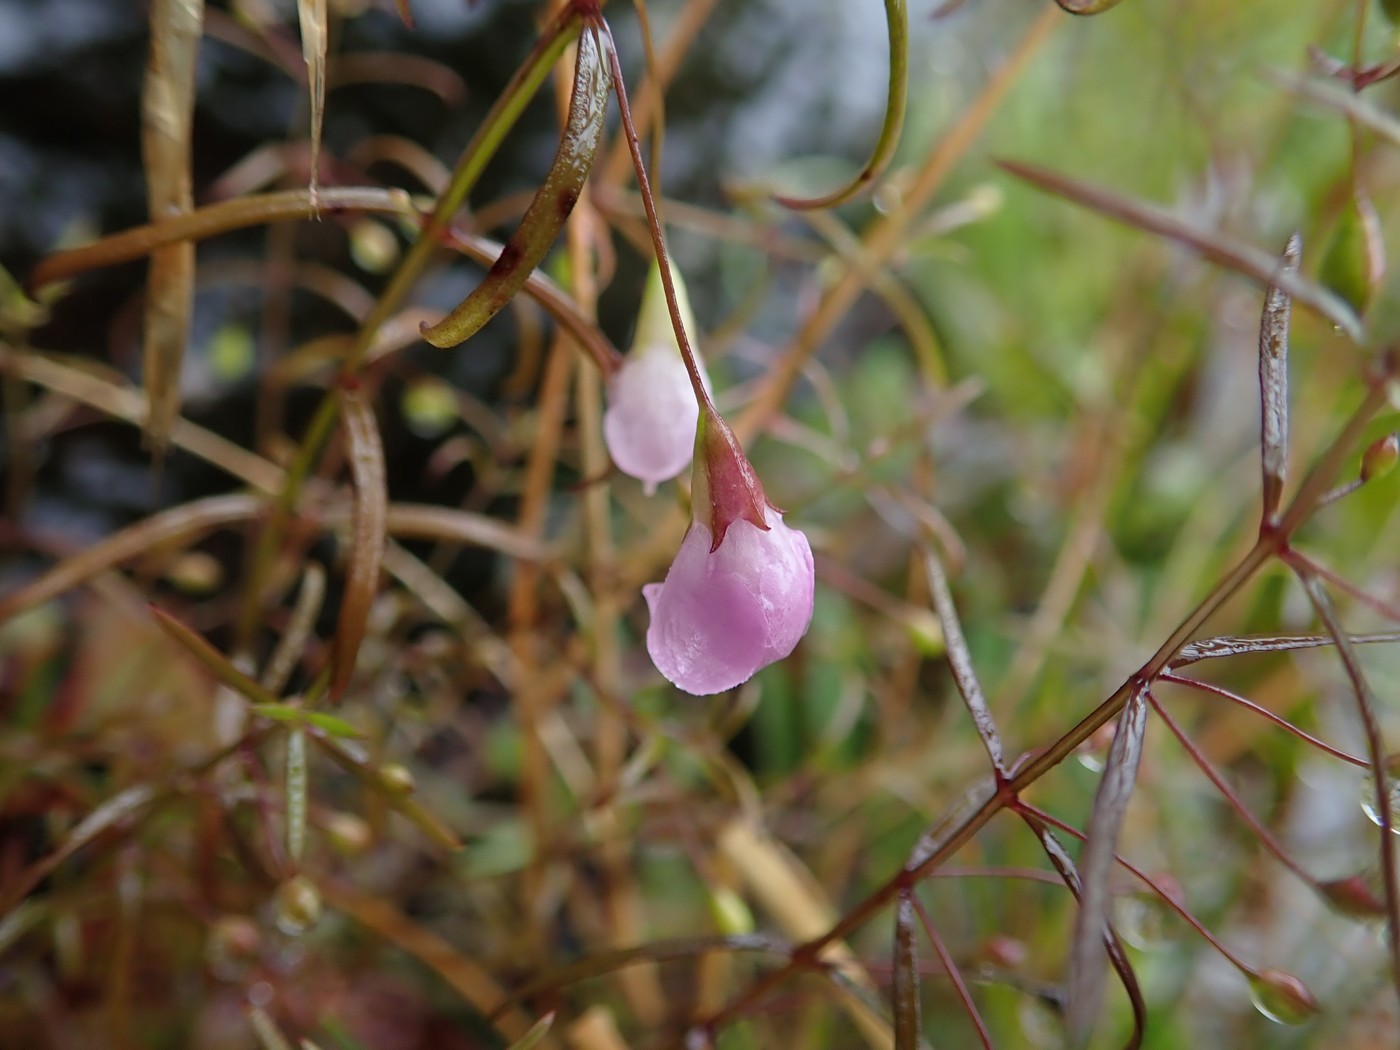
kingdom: Plantae
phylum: Tracheophyta
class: Magnoliopsida
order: Lamiales
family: Orobanchaceae
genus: Agalinis
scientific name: Agalinis tenuifolia
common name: Slender agalinis
